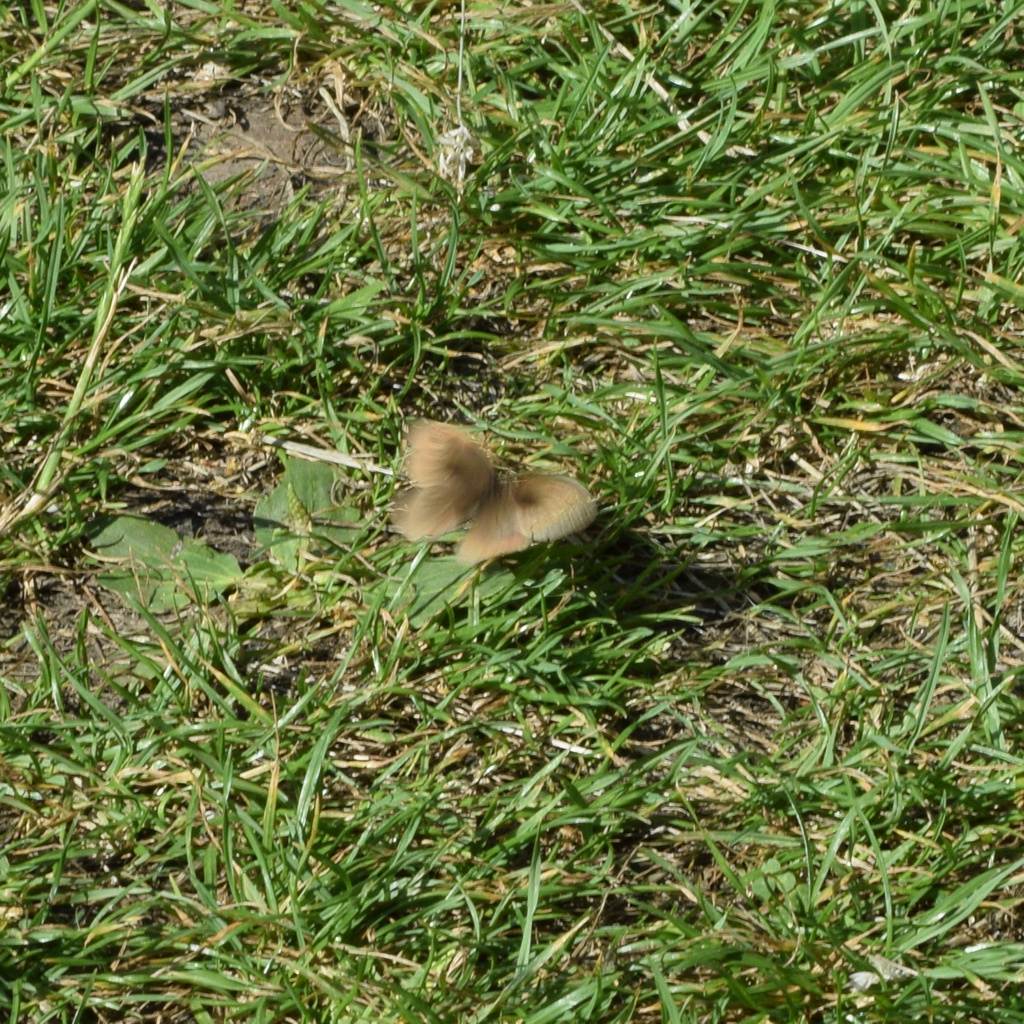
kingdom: Animalia
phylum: Arthropoda
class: Insecta
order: Lepidoptera
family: Nymphalidae
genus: Maniola
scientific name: Maniola jurtina
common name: Meadow brown
